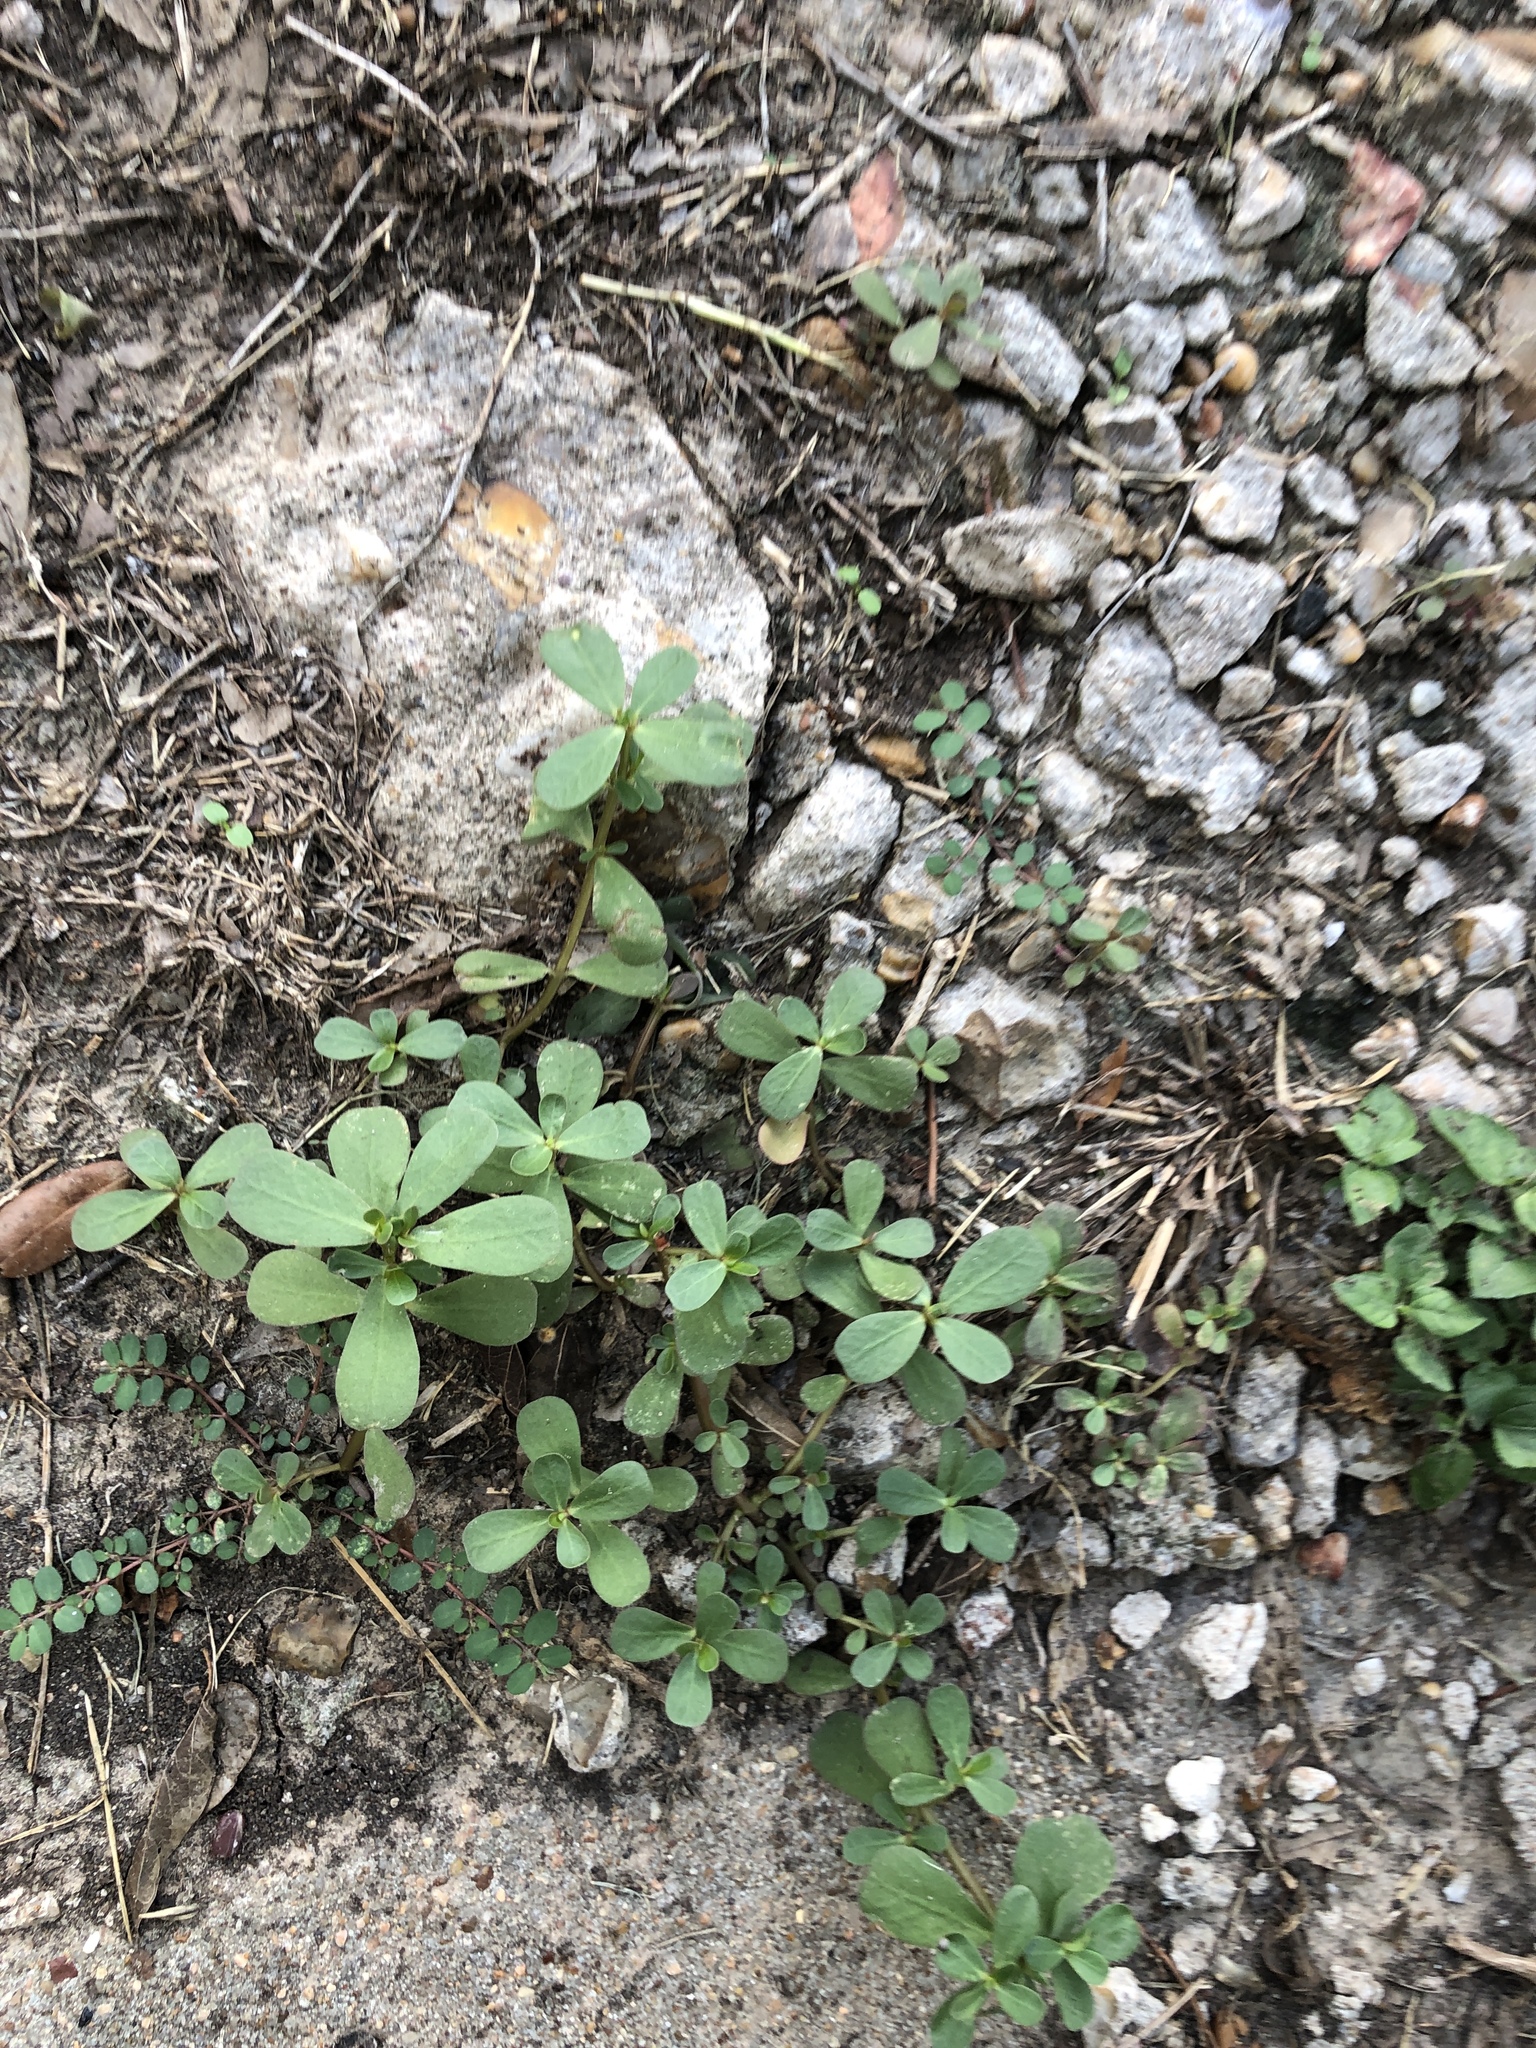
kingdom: Plantae
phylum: Tracheophyta
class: Magnoliopsida
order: Caryophyllales
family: Portulacaceae
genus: Portulaca
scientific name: Portulaca oleracea
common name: Common purslane
